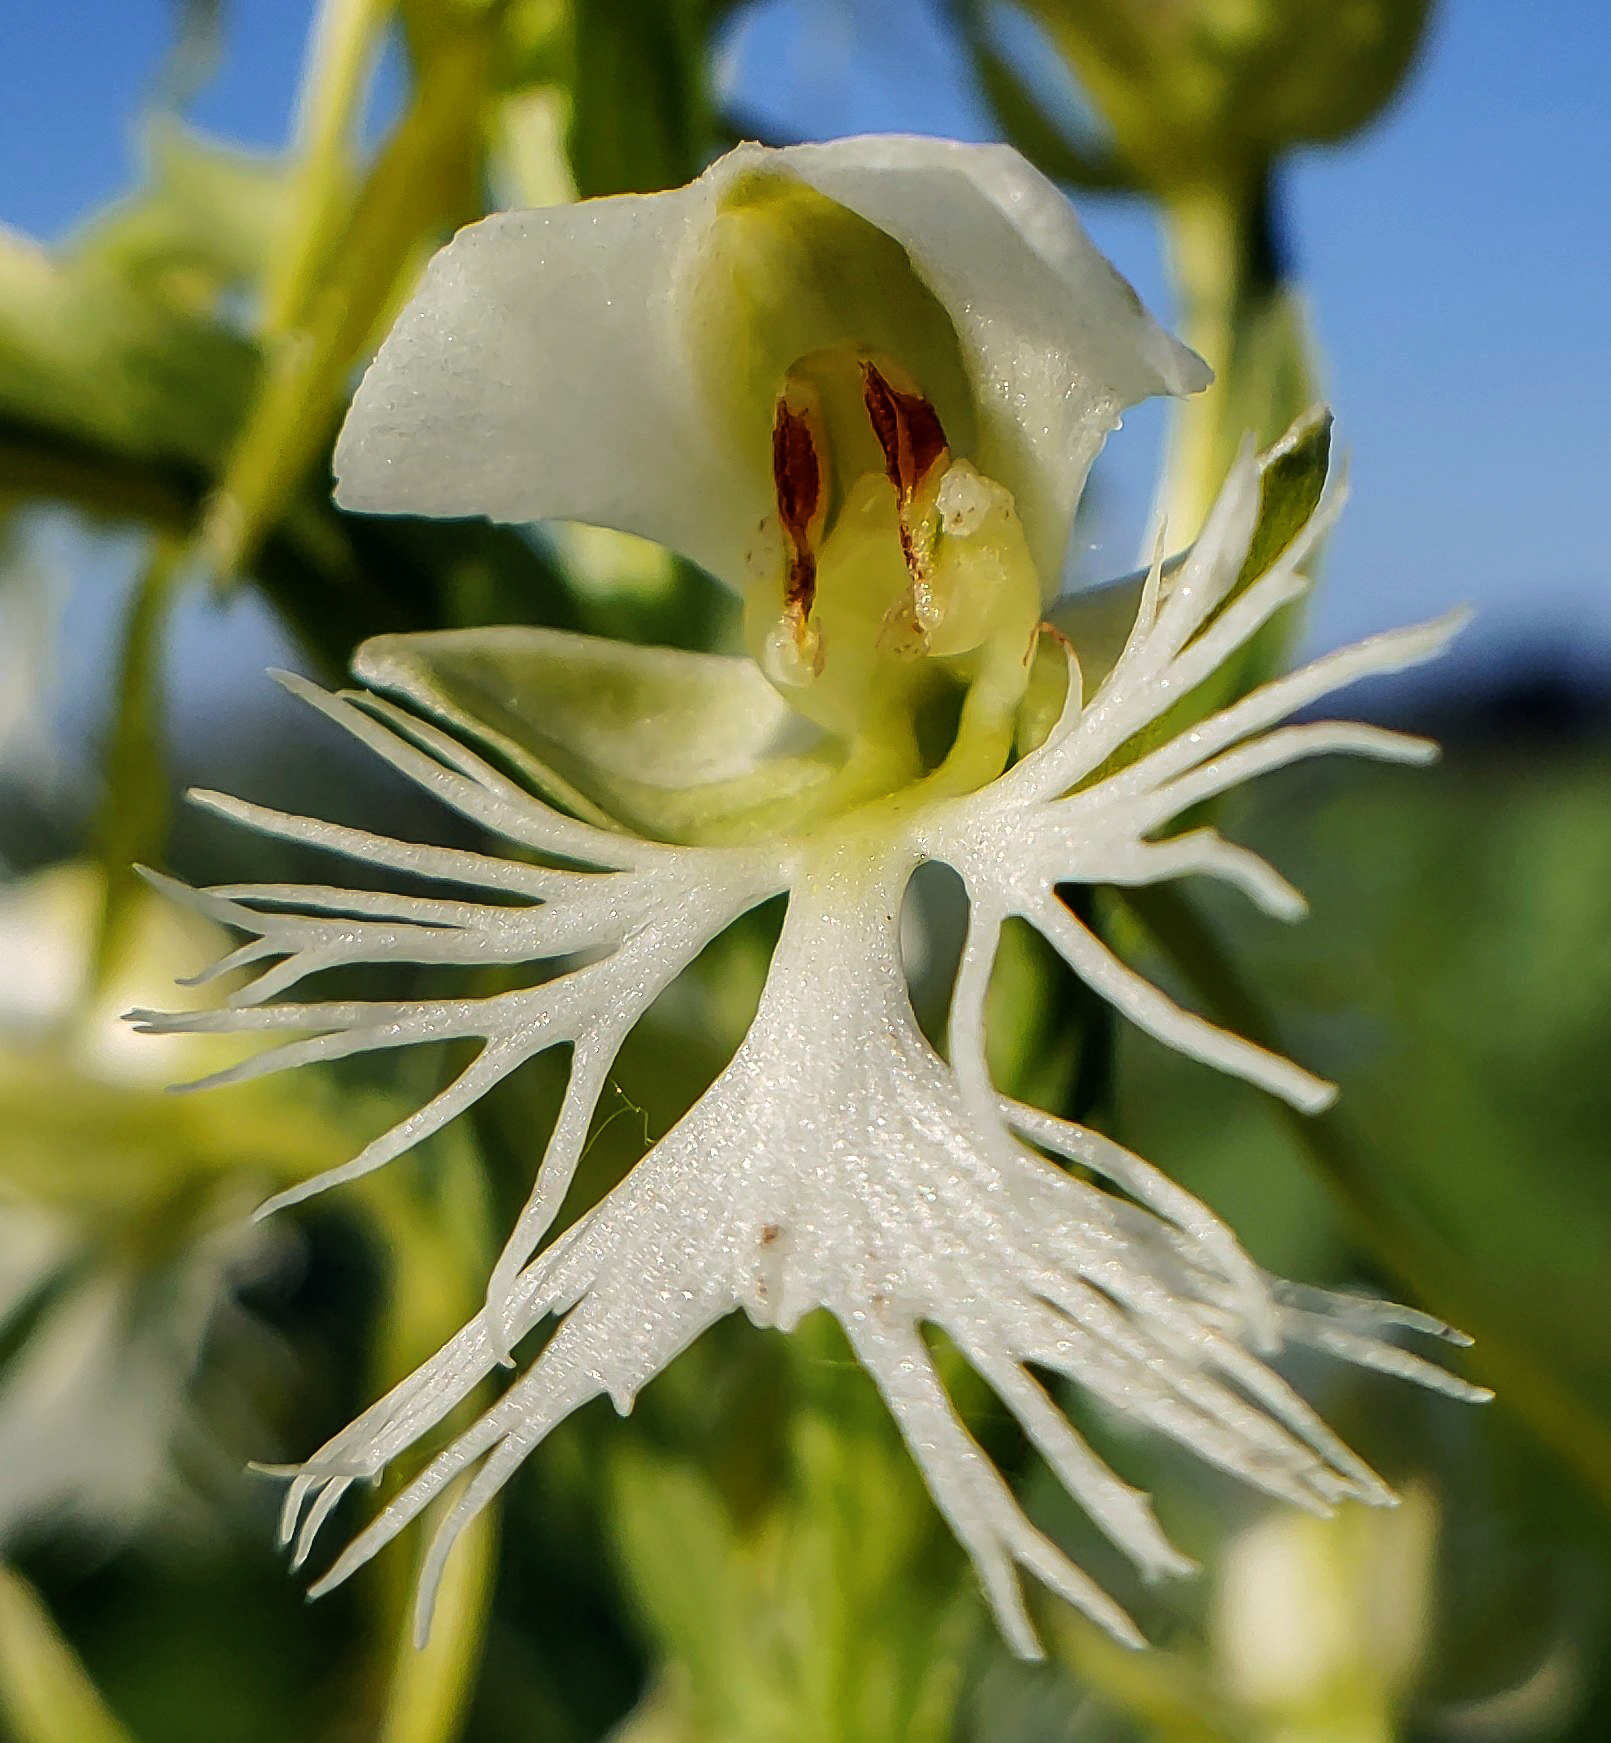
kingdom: Plantae
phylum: Tracheophyta
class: Liliopsida
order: Asparagales
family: Orchidaceae
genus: Platanthera
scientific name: Platanthera leucophaea
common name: Eastern prairie white-fringed orchid
